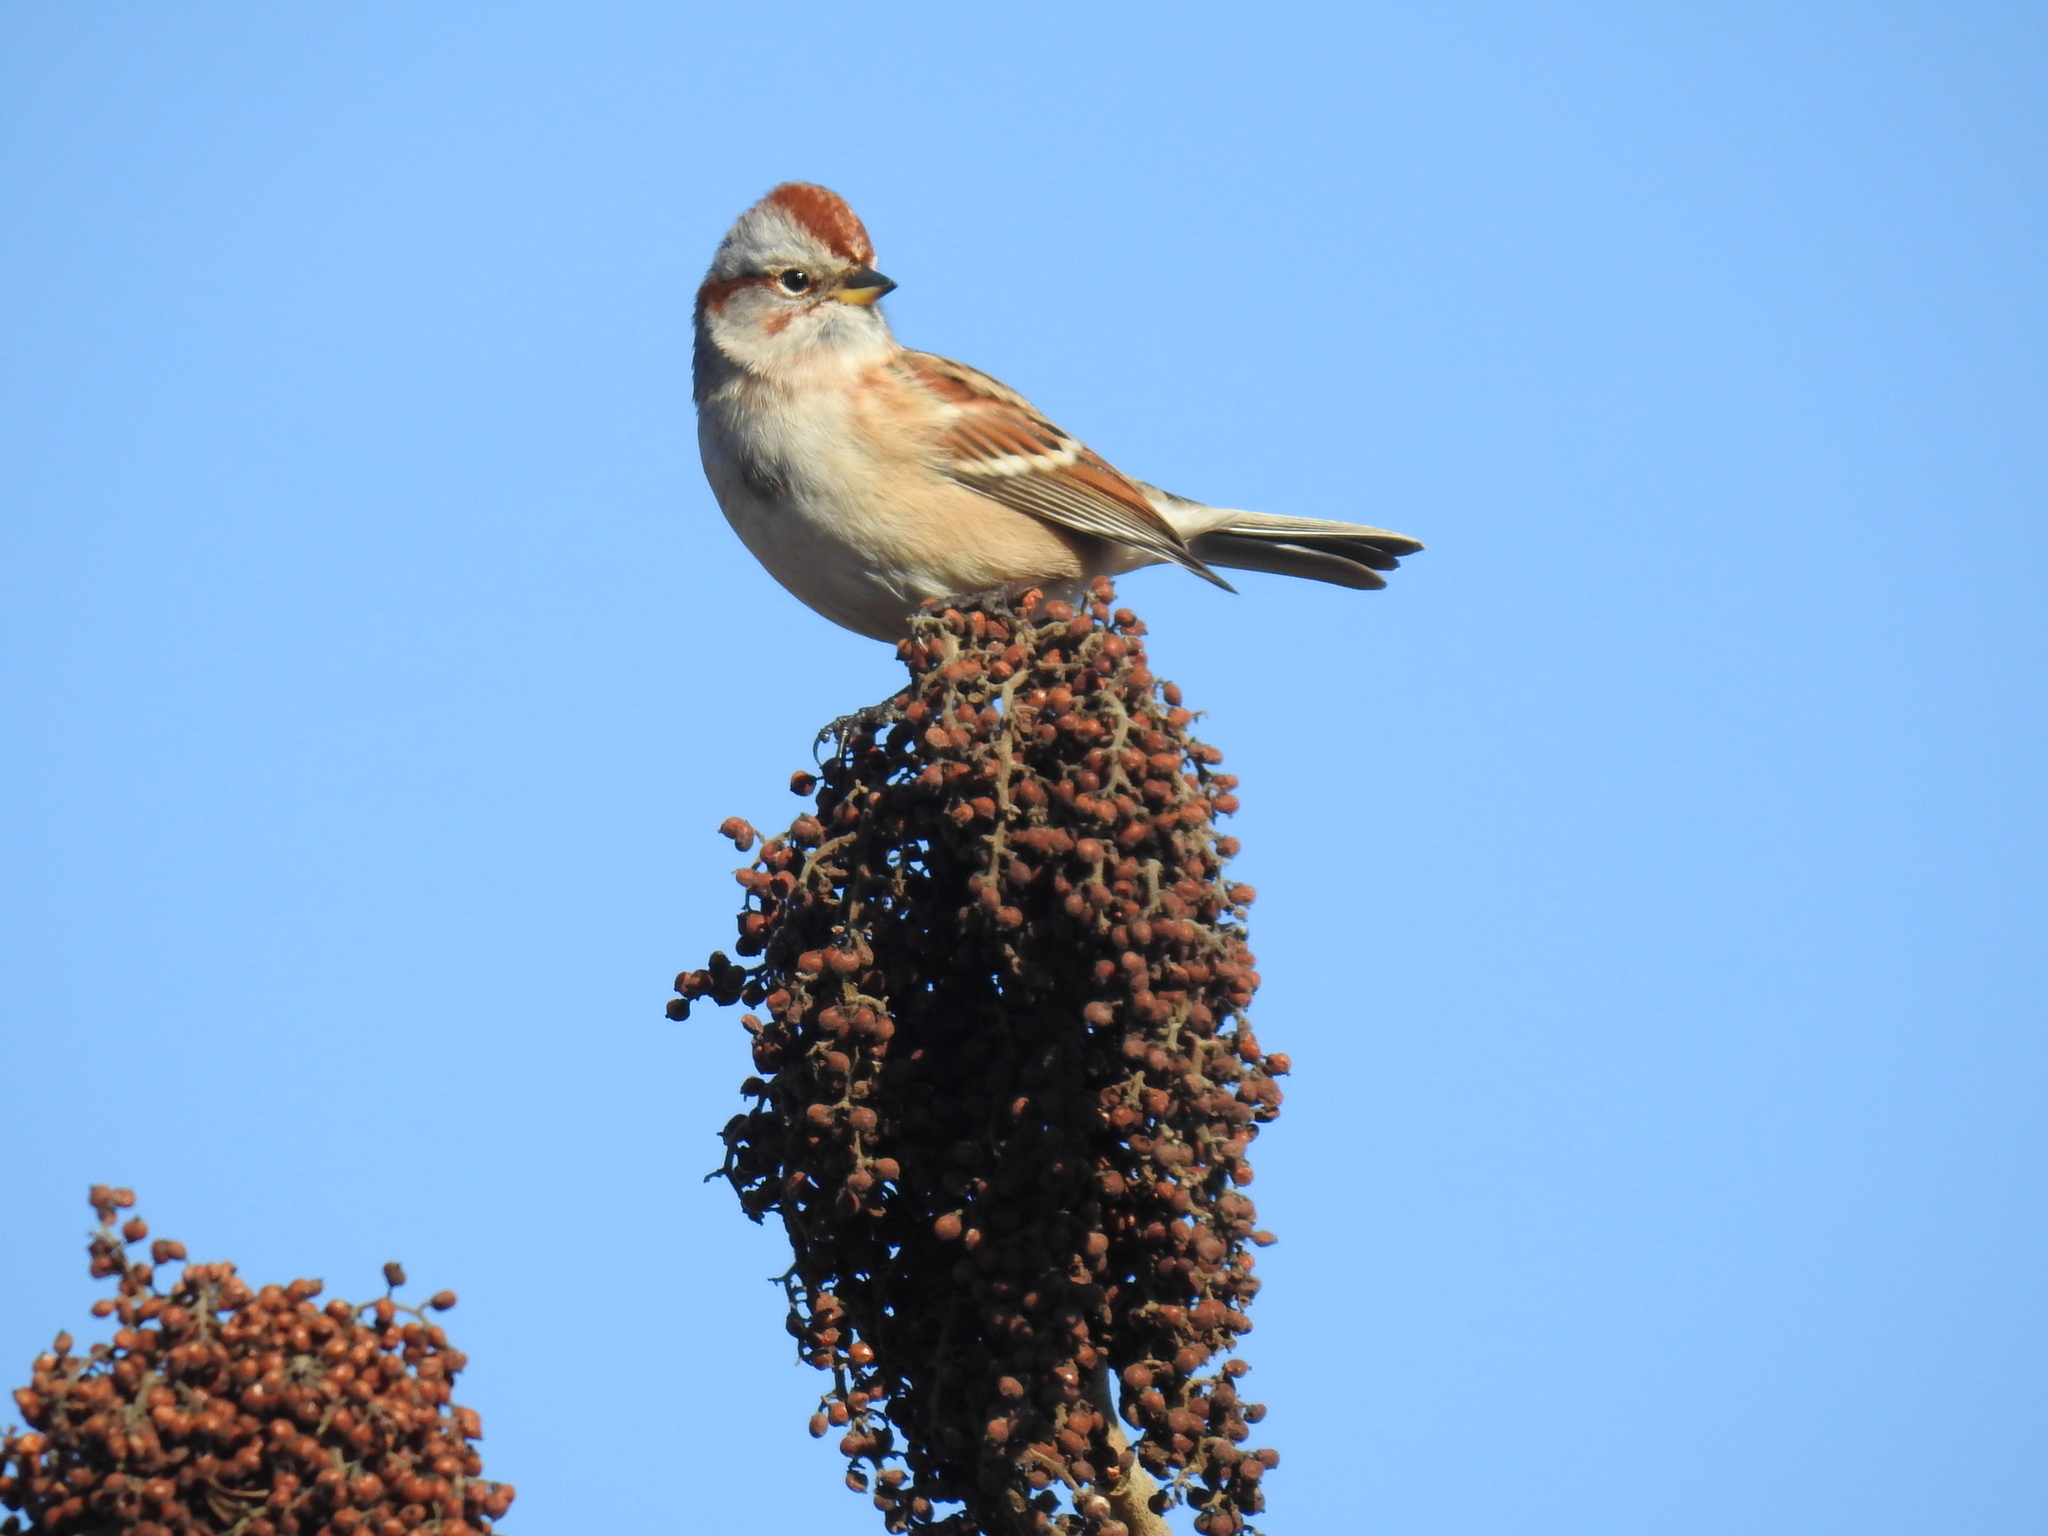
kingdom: Animalia
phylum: Chordata
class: Aves
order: Passeriformes
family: Passerellidae
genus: Spizelloides
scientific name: Spizelloides arborea
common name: American tree sparrow
